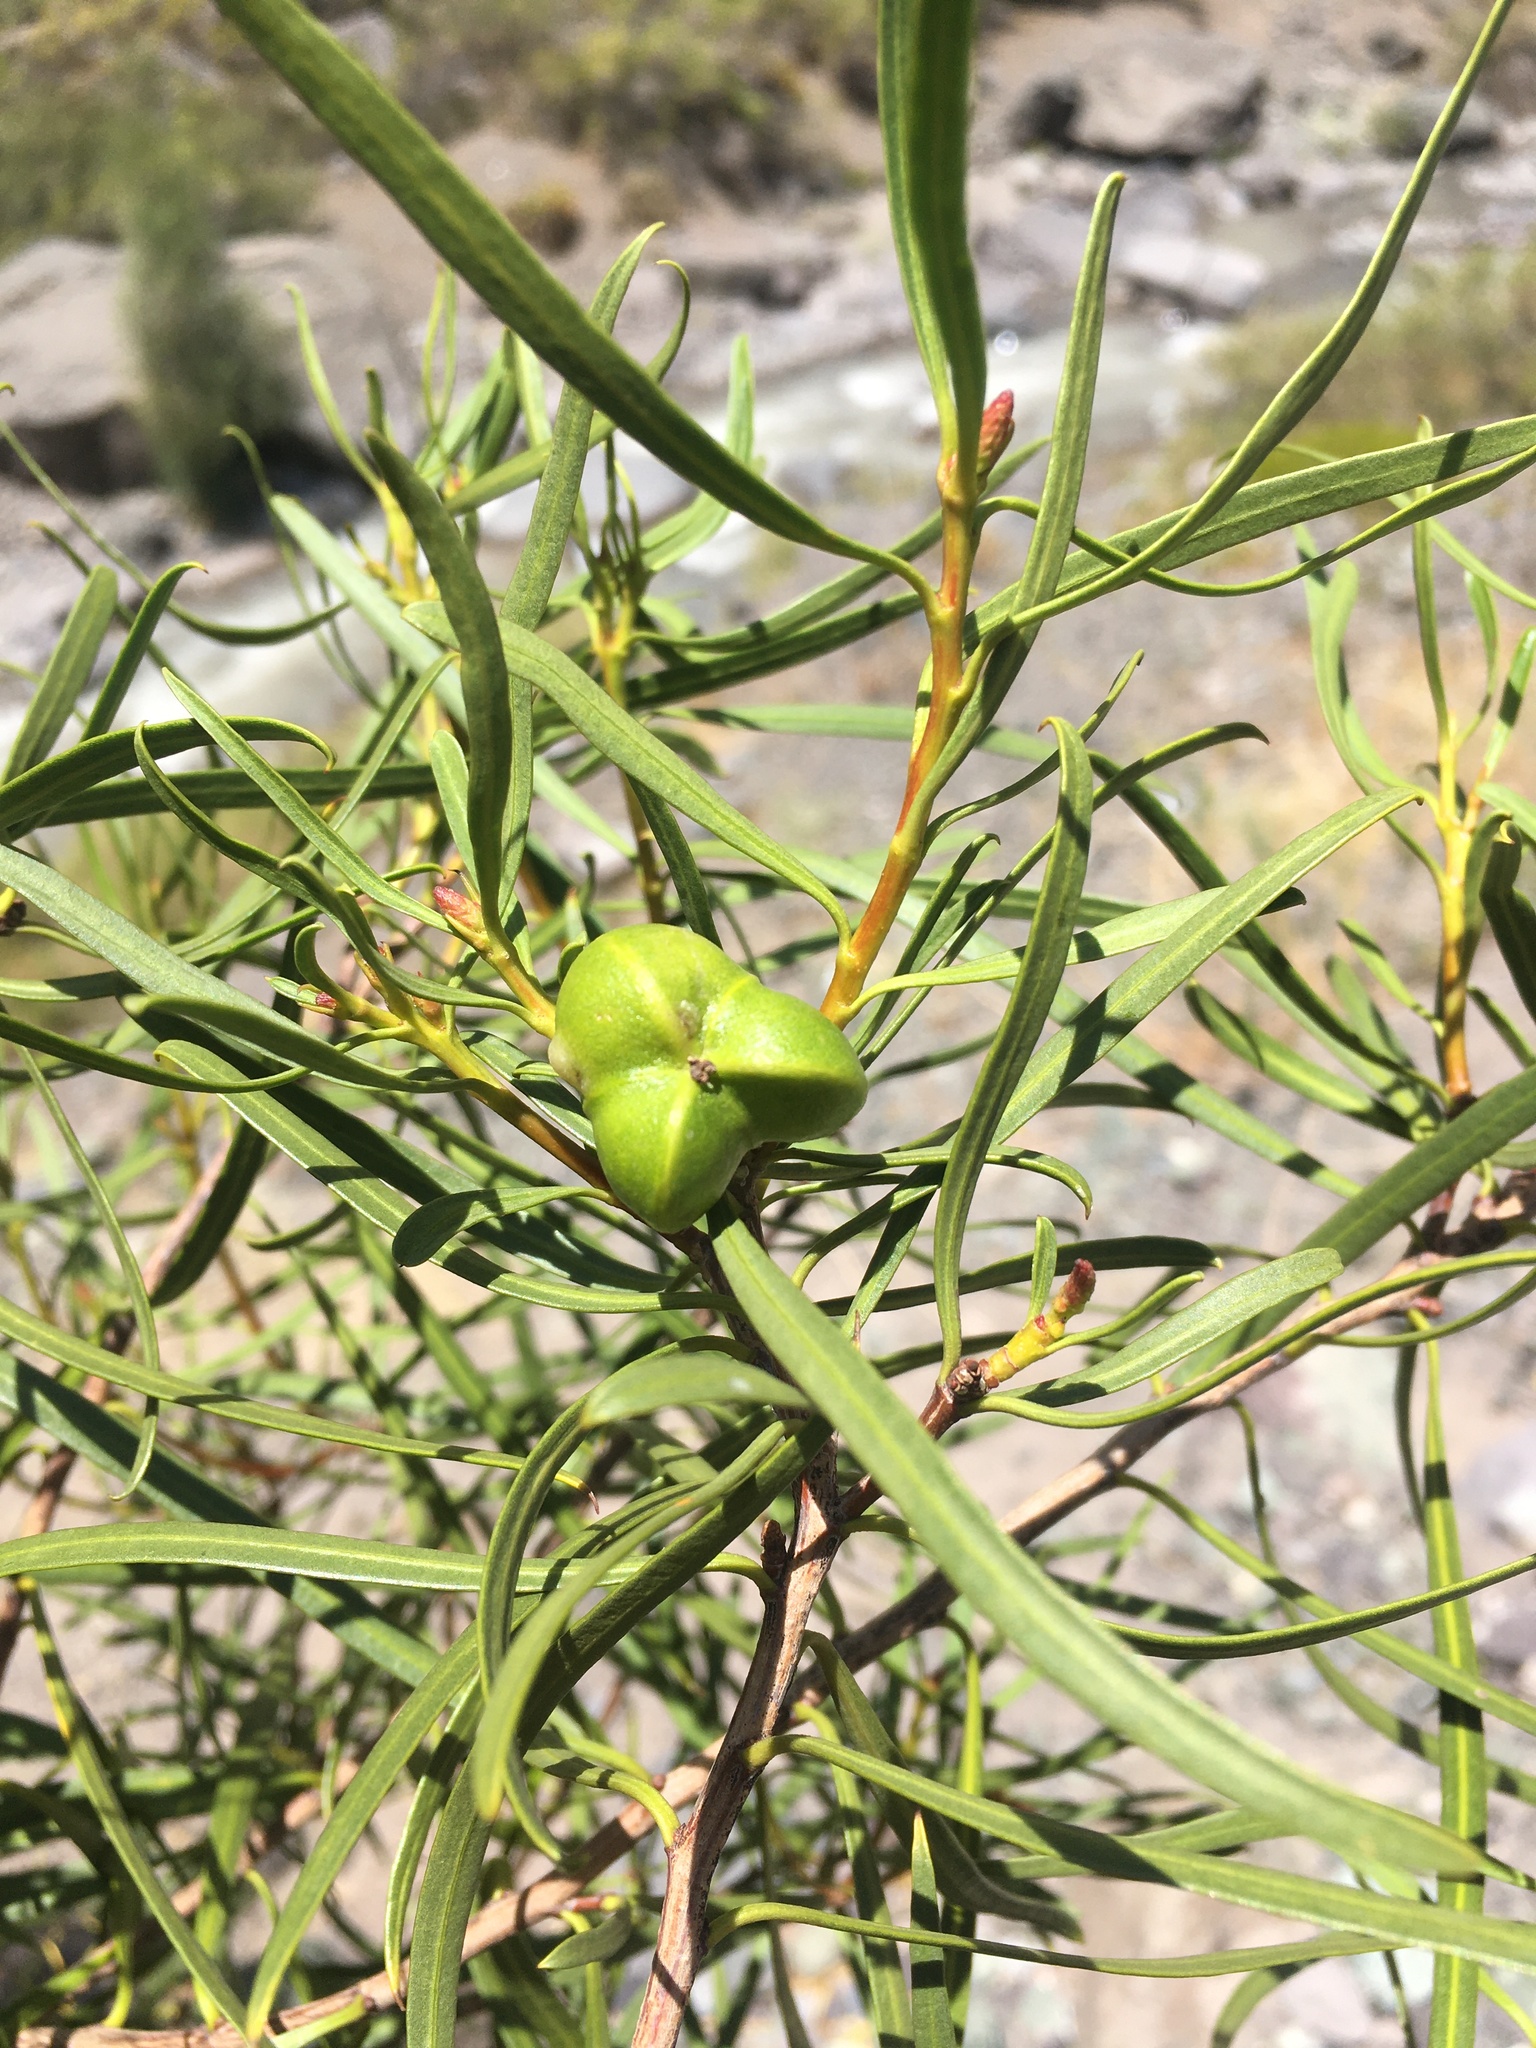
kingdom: Plantae
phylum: Tracheophyta
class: Magnoliopsida
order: Malpighiales
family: Euphorbiaceae
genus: Colliguaja
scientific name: Colliguaja integerrima
